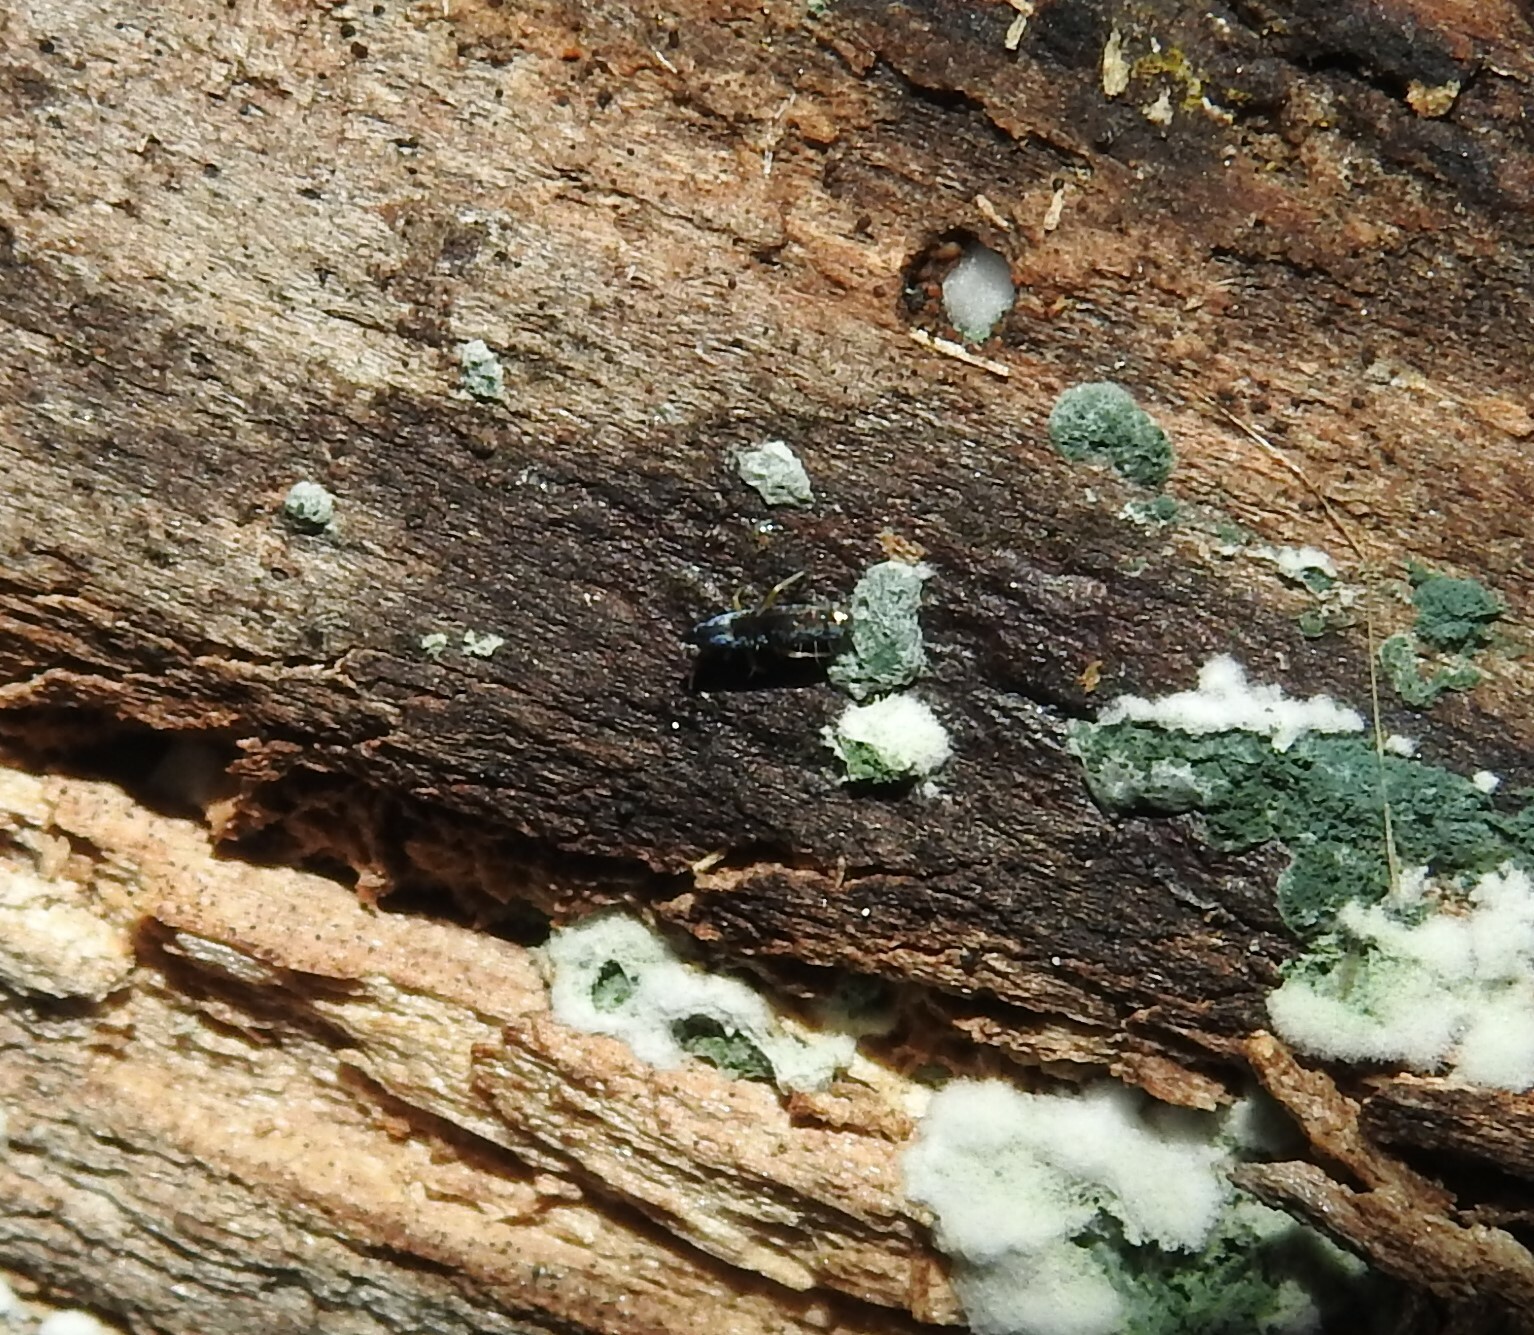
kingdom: Animalia
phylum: Arthropoda
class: Collembola
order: Entomobryomorpha
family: Entomobryidae
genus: Lepidocyrtus
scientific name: Lepidocyrtus paradoxus
